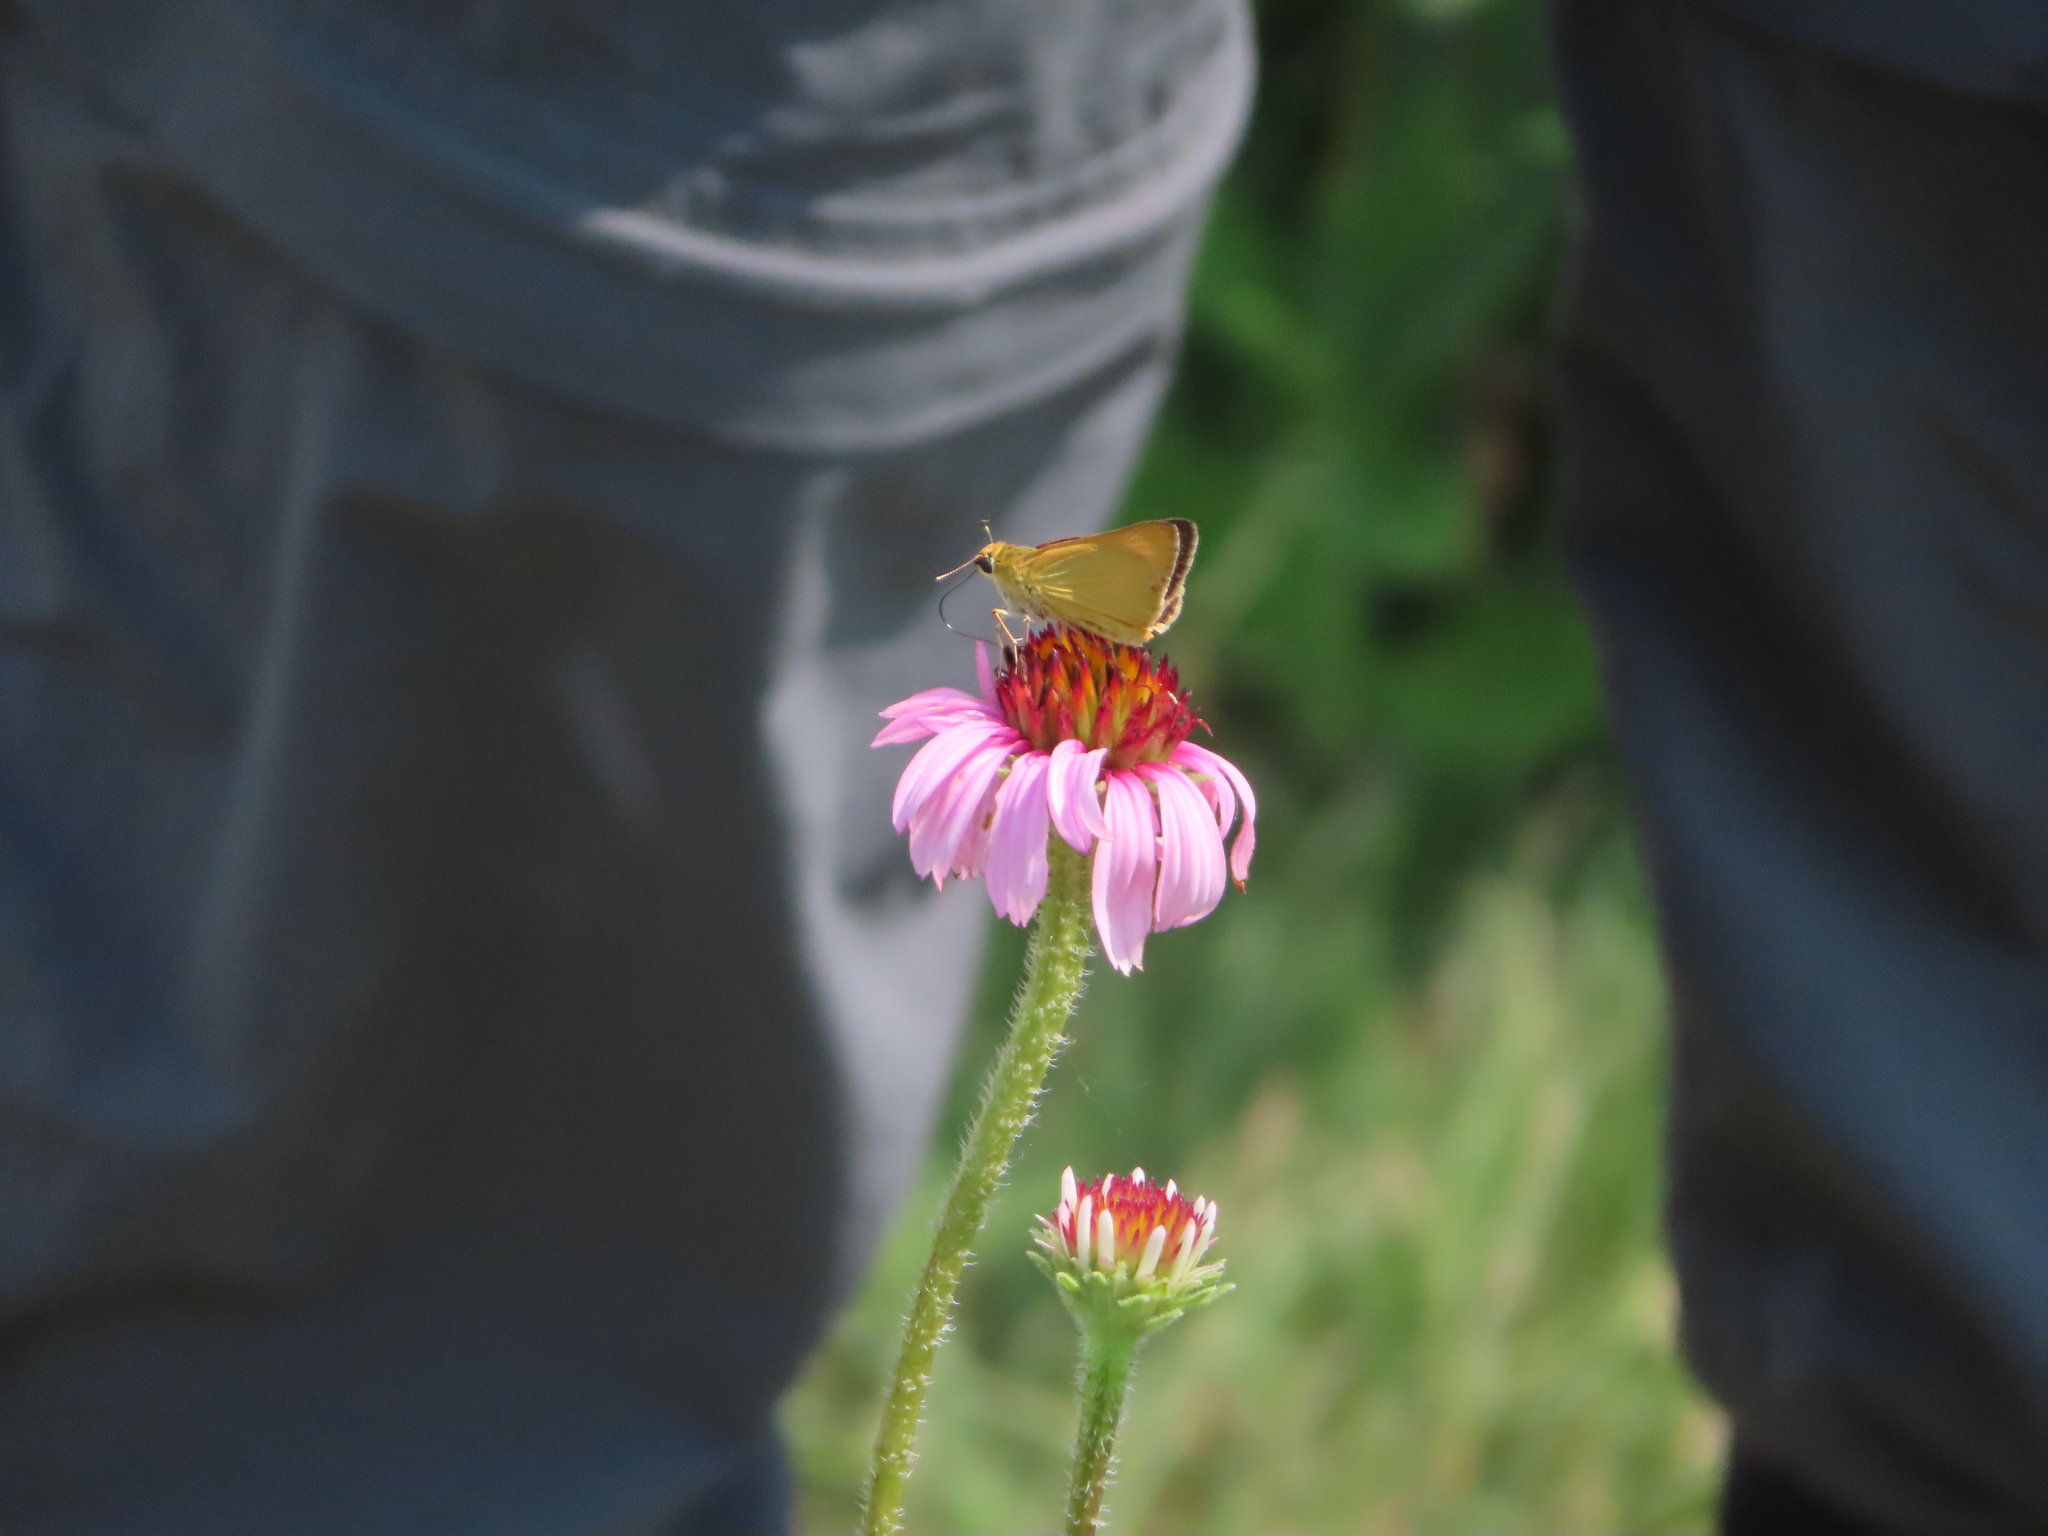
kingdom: Animalia
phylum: Arthropoda
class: Insecta
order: Lepidoptera
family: Hesperiidae
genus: Atrytone
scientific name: Atrytone delaware
